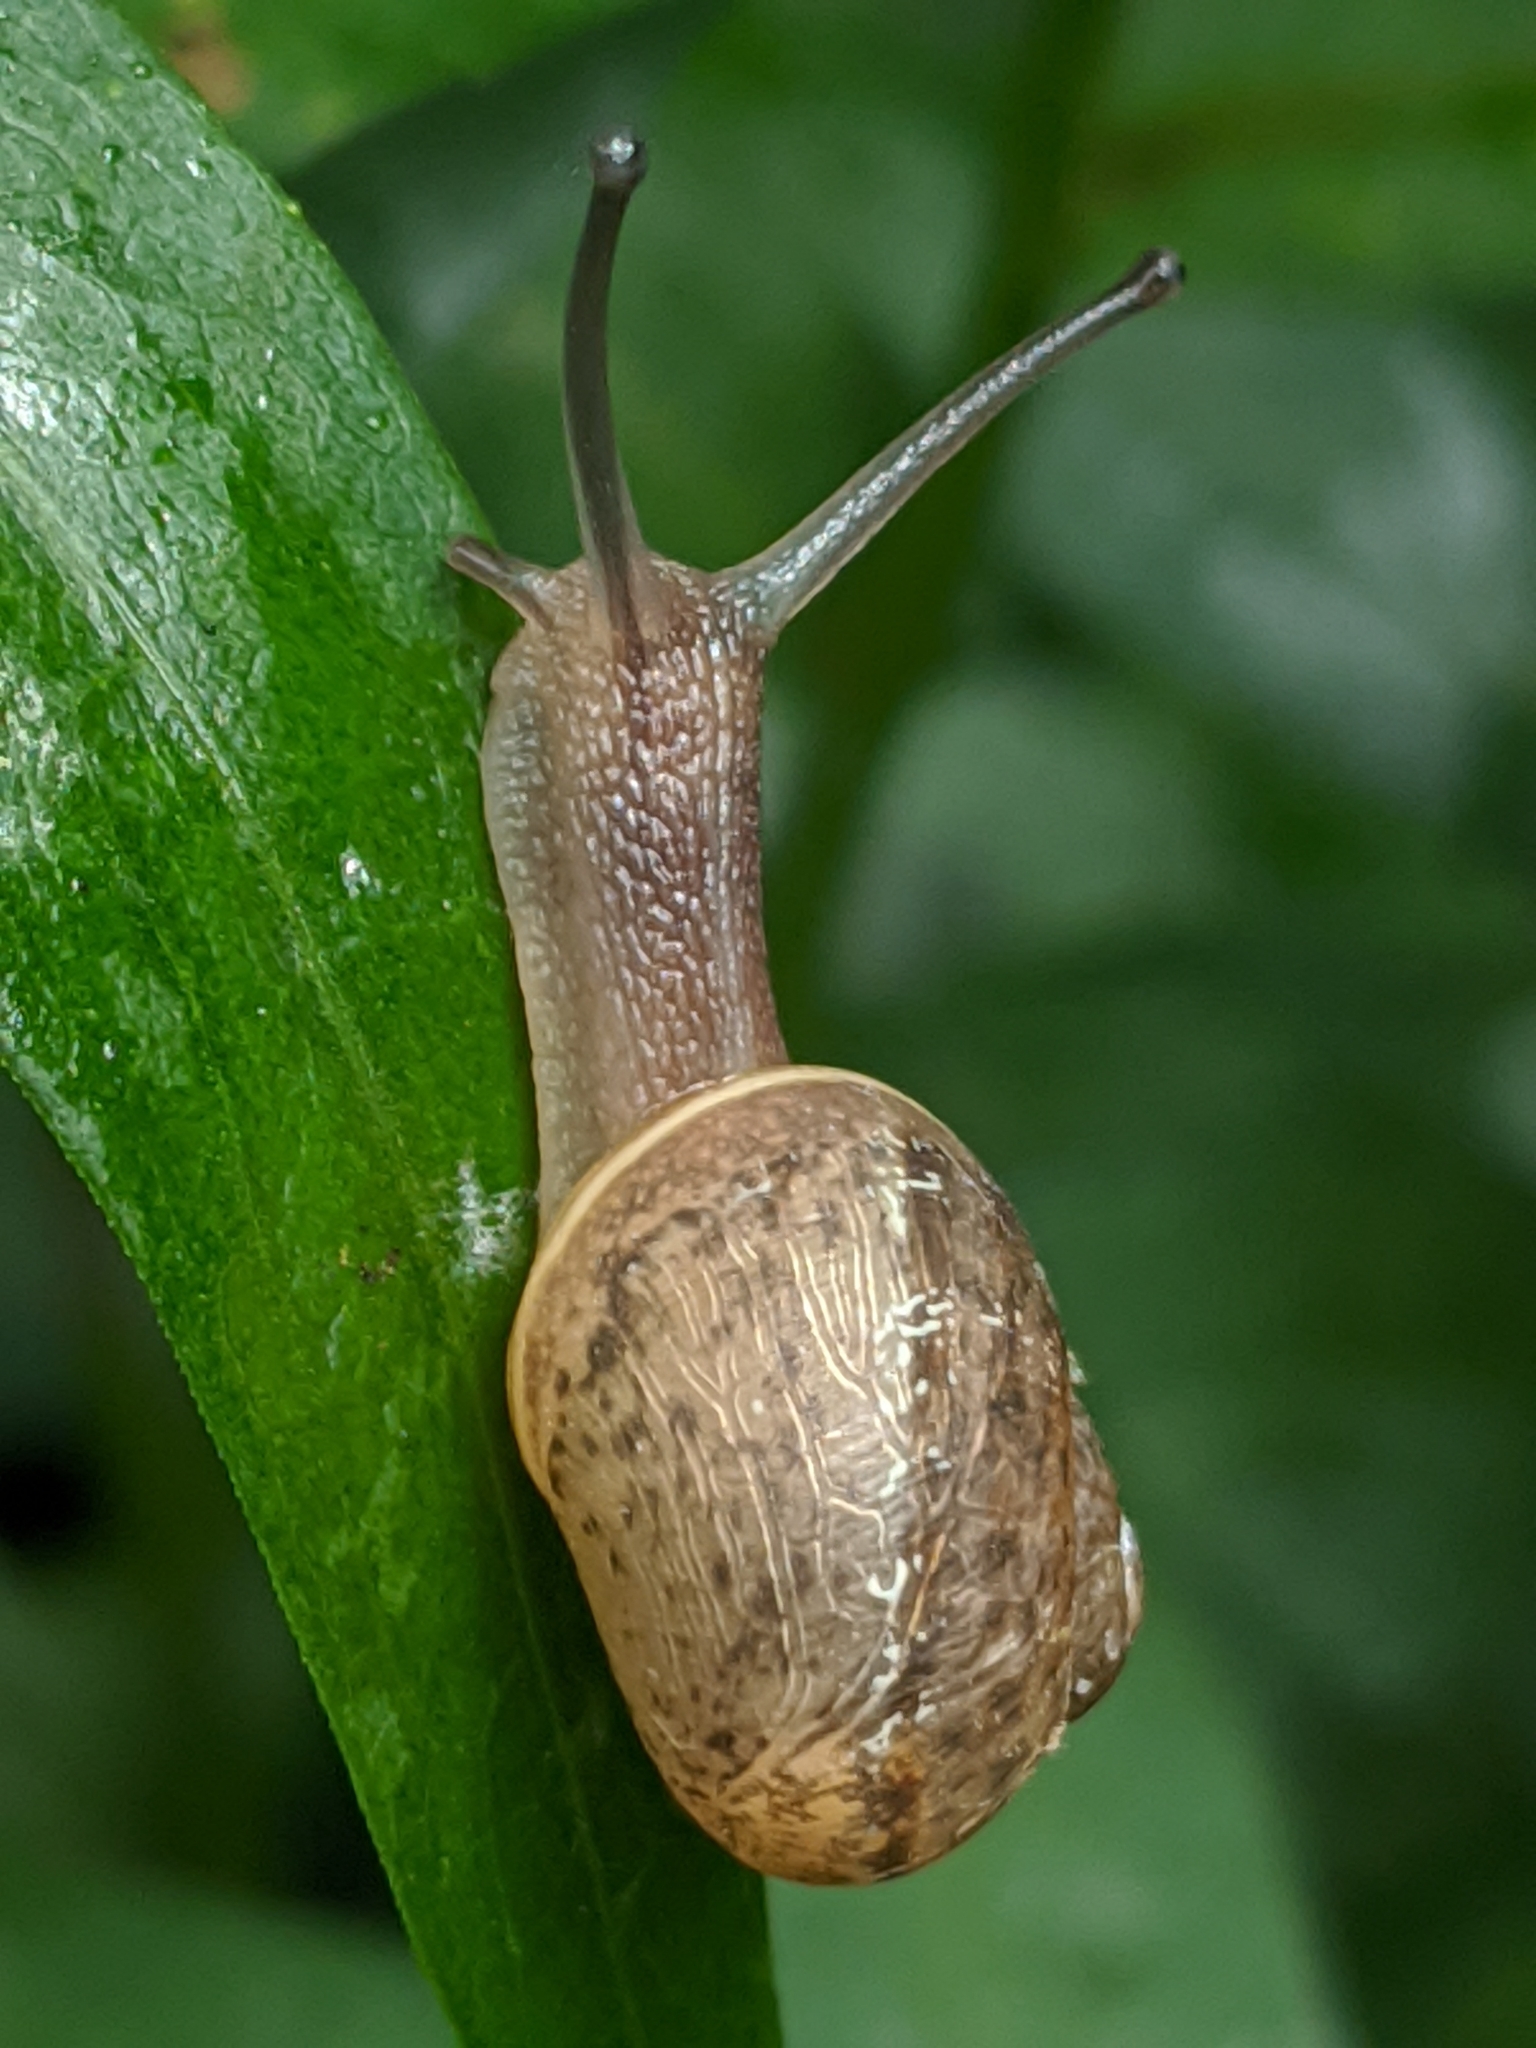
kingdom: Animalia
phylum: Mollusca
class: Gastropoda
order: Stylommatophora
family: Helicidae
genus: Cornu
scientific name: Cornu aspersum
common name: Brown garden snail
